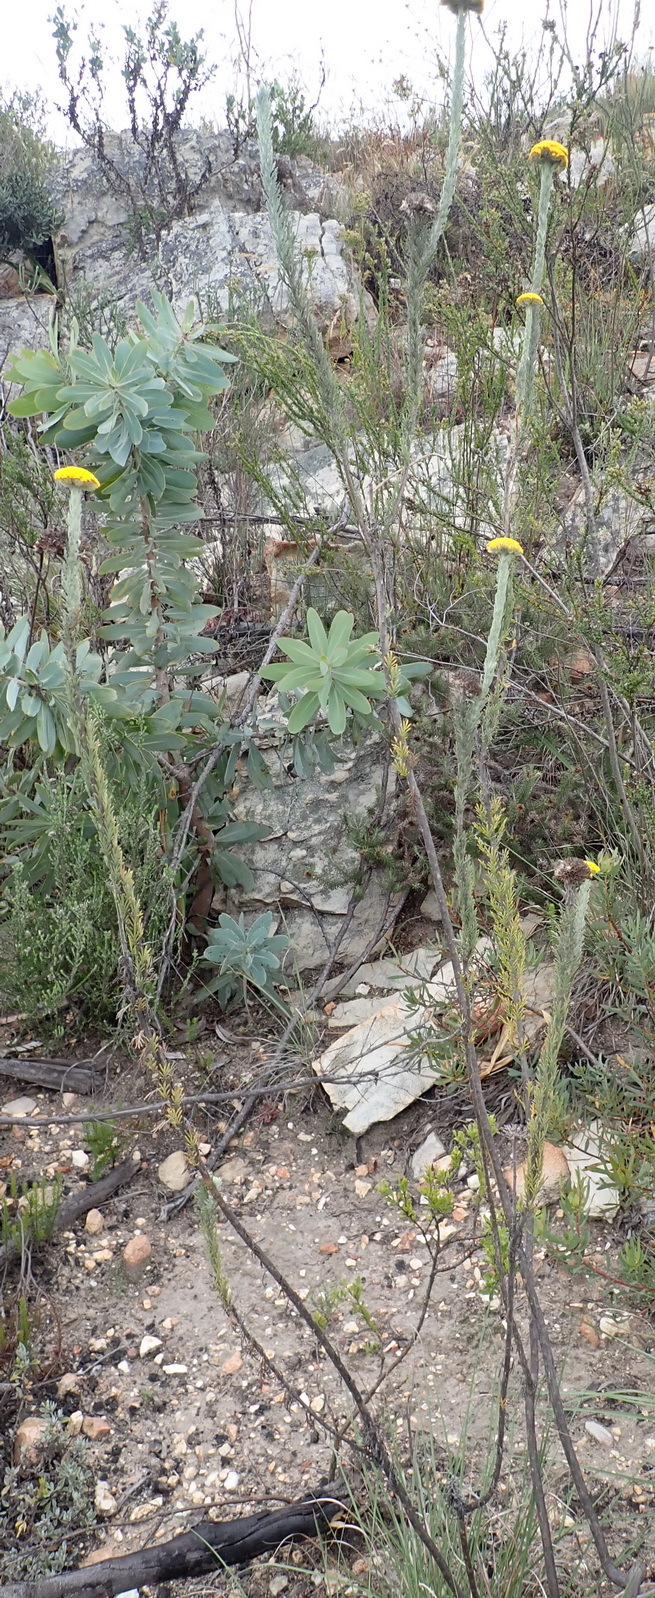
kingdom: Plantae
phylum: Tracheophyta
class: Magnoliopsida
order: Asterales
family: Asteraceae
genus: Athanasia
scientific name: Athanasia pinnata
